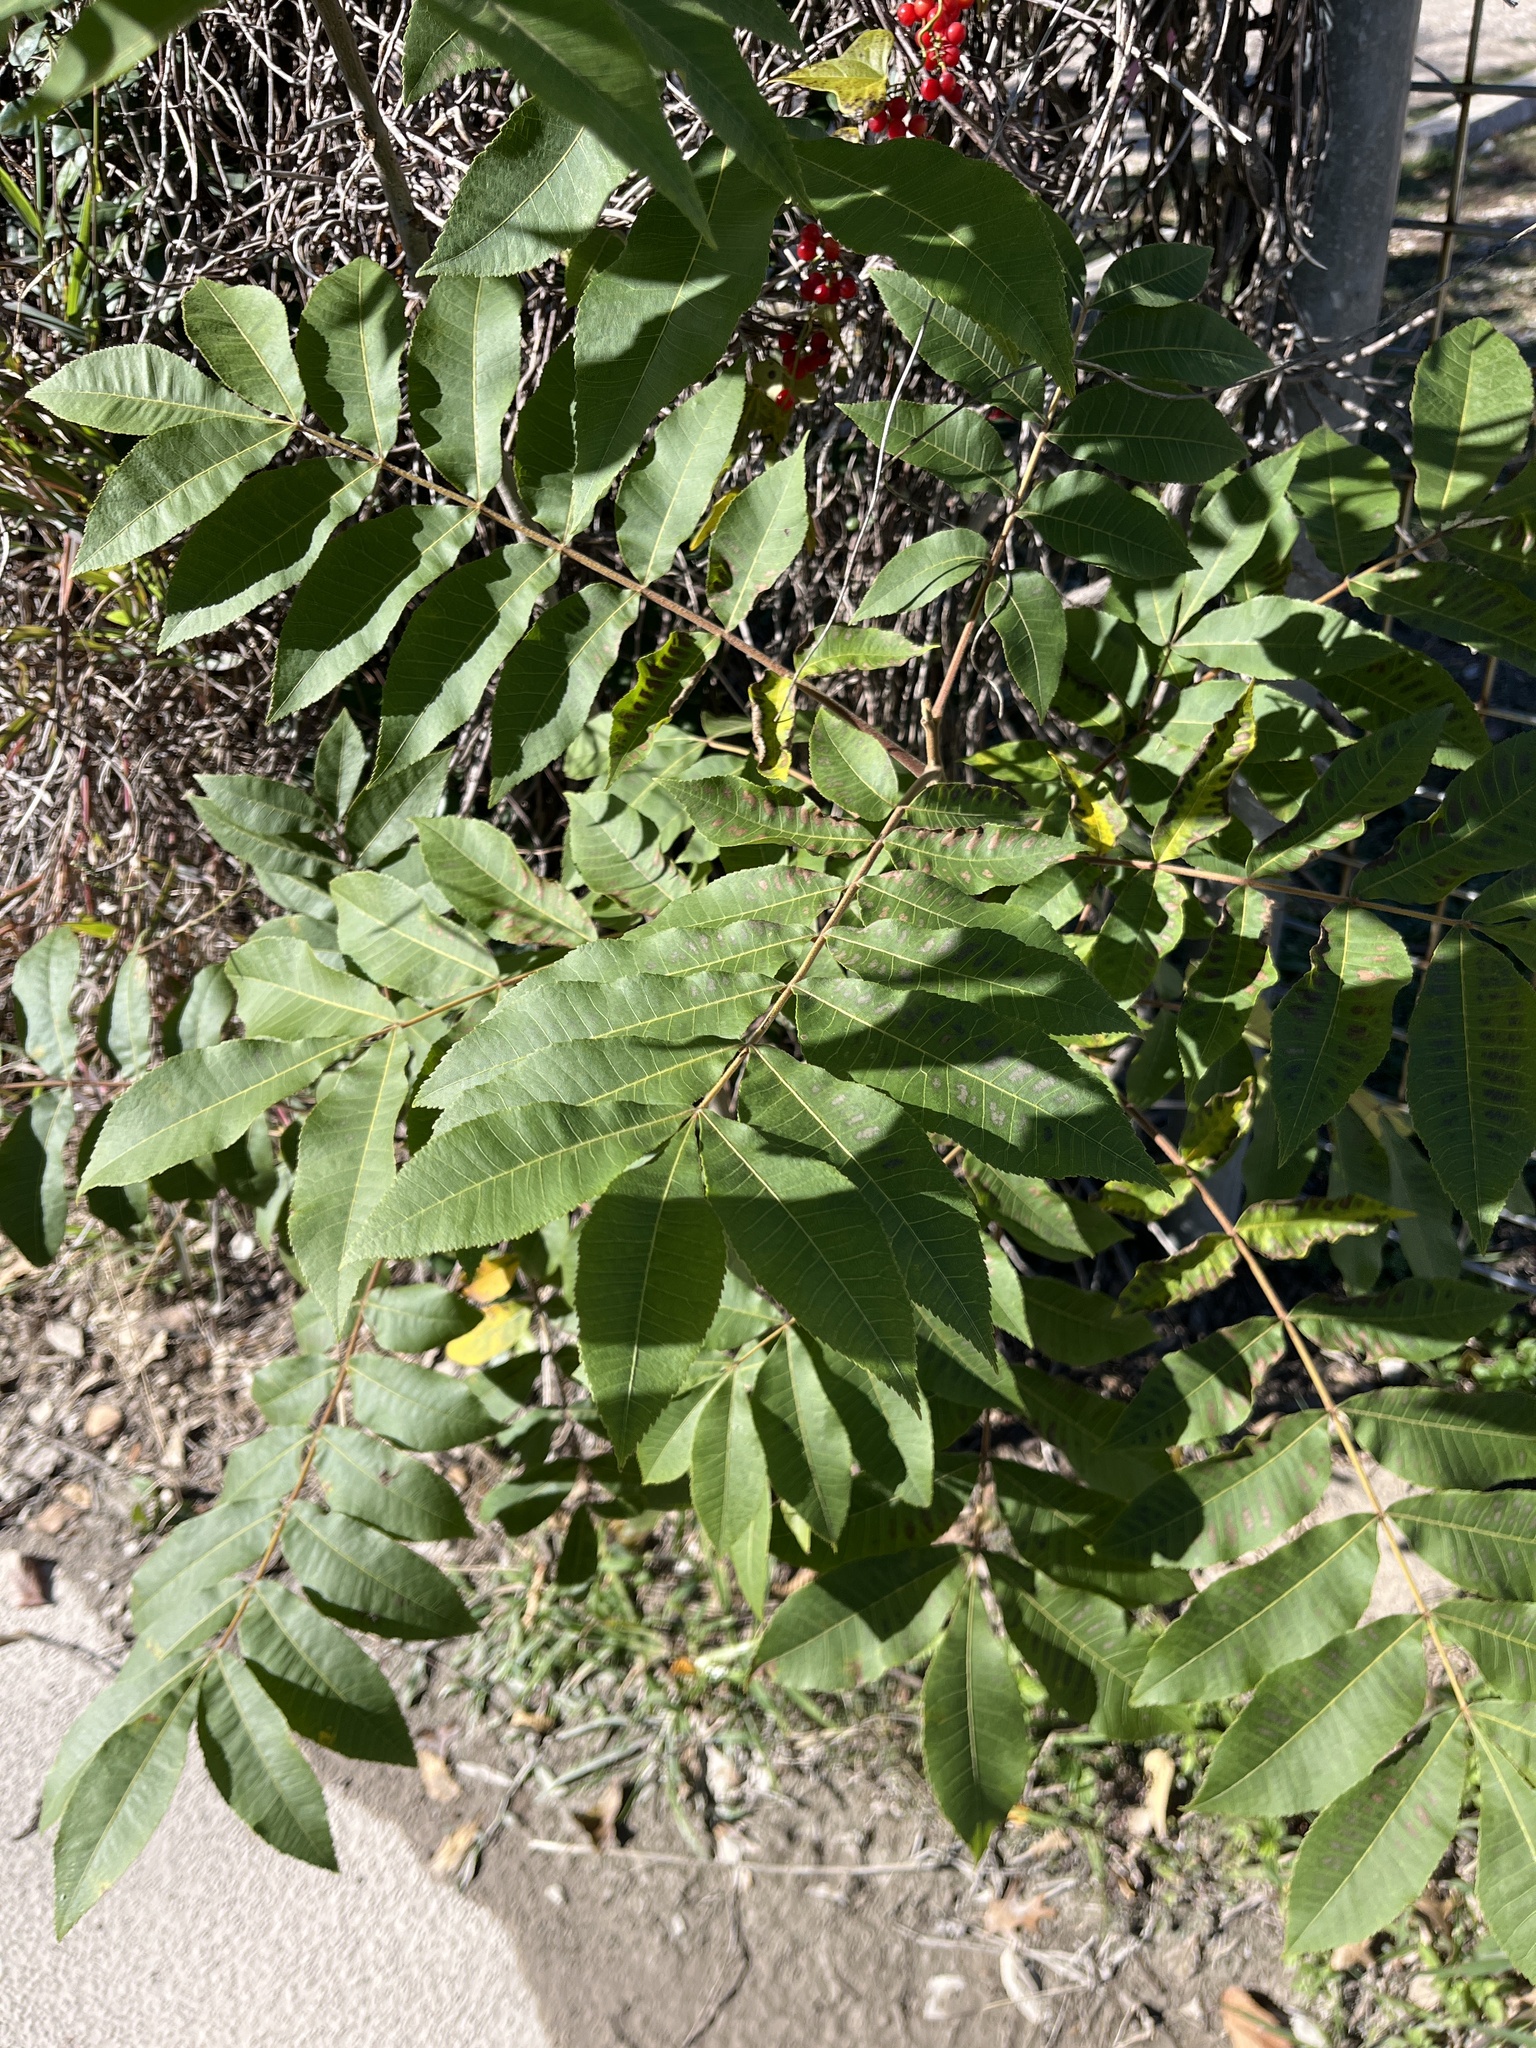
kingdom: Plantae
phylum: Tracheophyta
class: Magnoliopsida
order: Fagales
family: Juglandaceae
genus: Carya
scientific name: Carya illinoinensis
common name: Pecan
